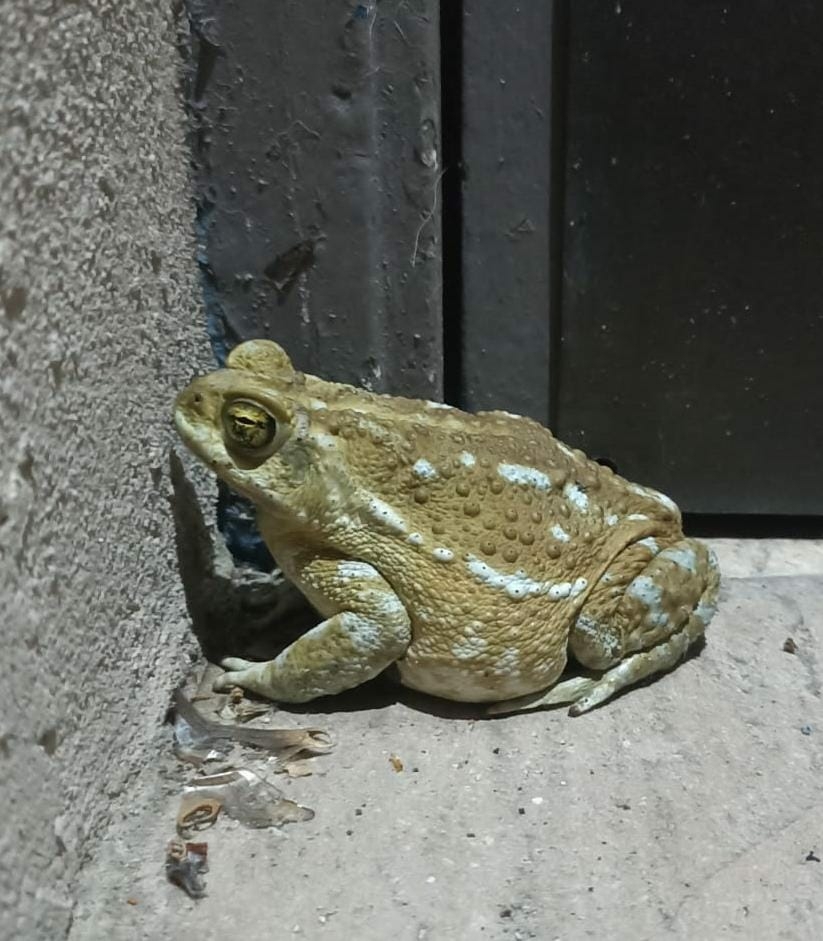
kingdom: Animalia
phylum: Chordata
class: Amphibia
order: Anura
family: Bufonidae
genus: Rhinella
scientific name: Rhinella arenarum
